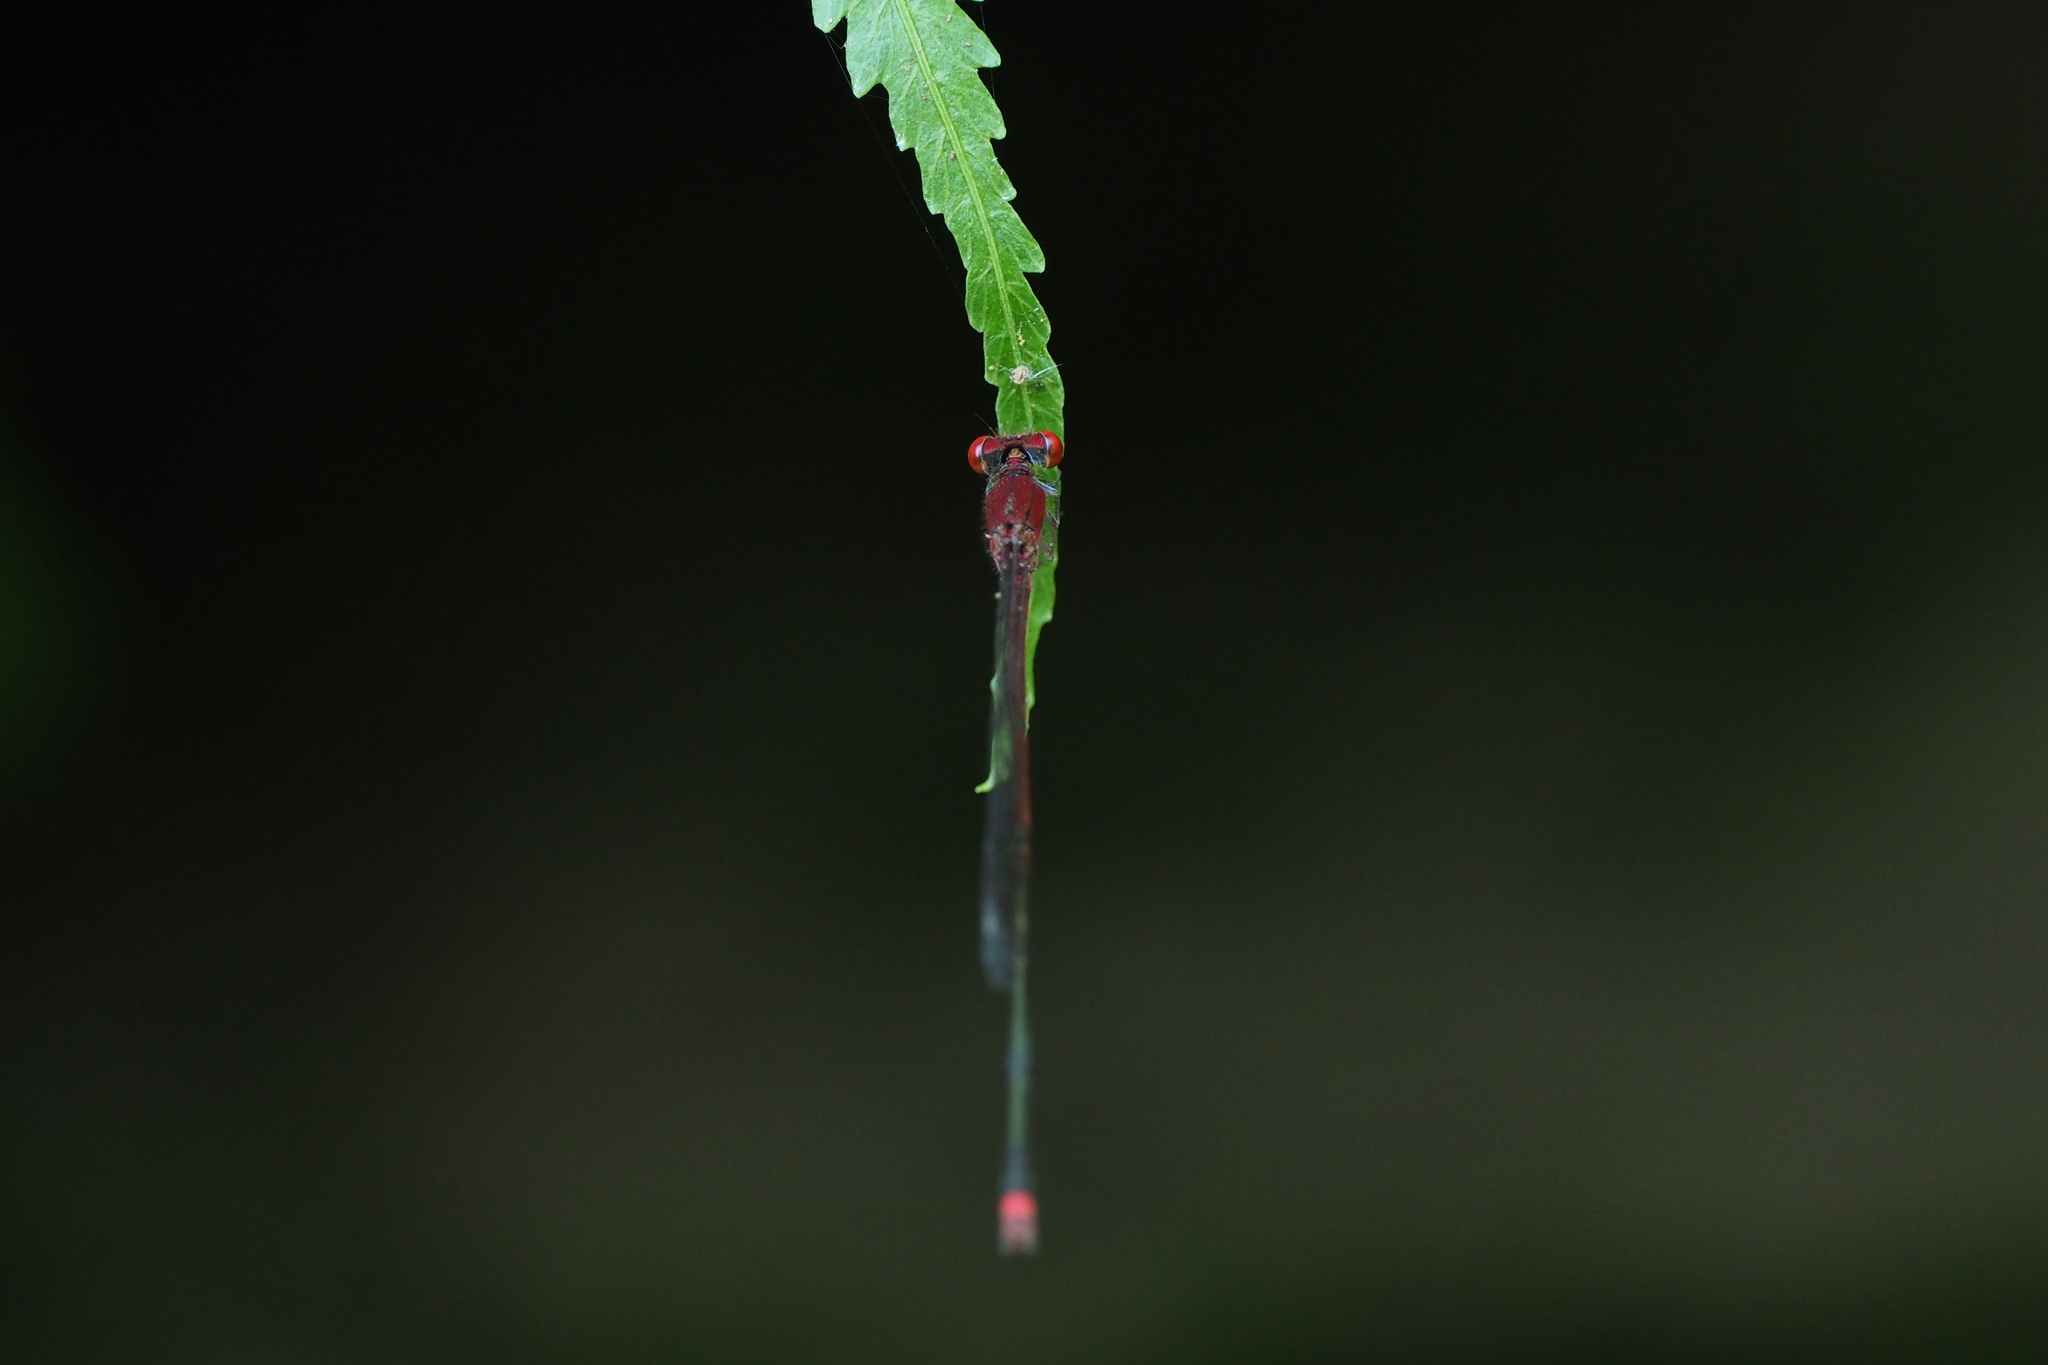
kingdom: Animalia
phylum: Arthropoda
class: Insecta
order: Odonata
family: Coenagrionidae
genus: Pseudagrion
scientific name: Pseudagrion pilidorsum
